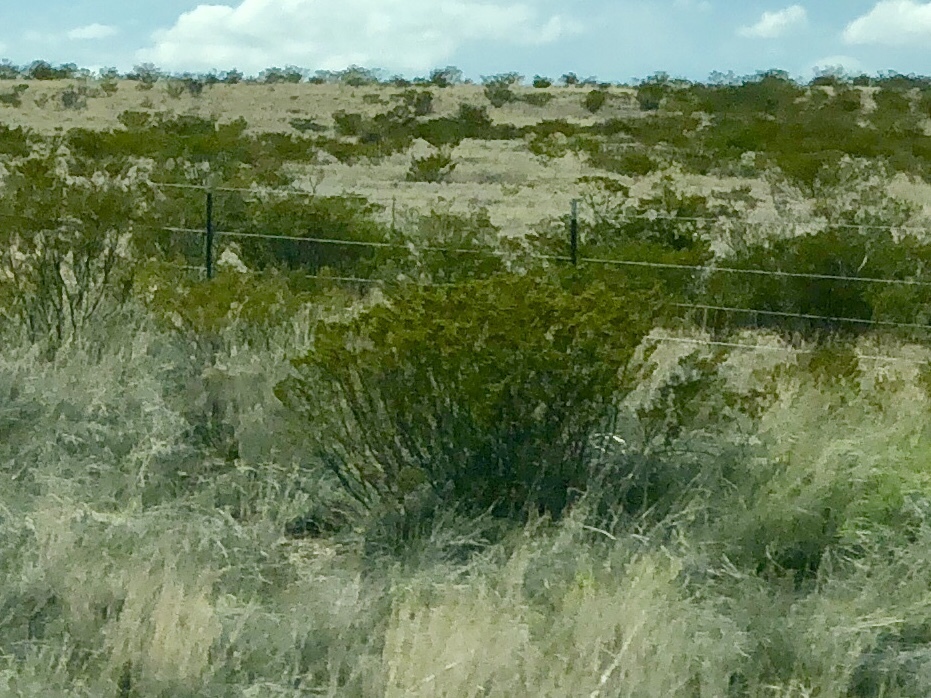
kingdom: Plantae
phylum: Tracheophyta
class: Magnoliopsida
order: Zygophyllales
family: Zygophyllaceae
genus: Larrea
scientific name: Larrea tridentata
